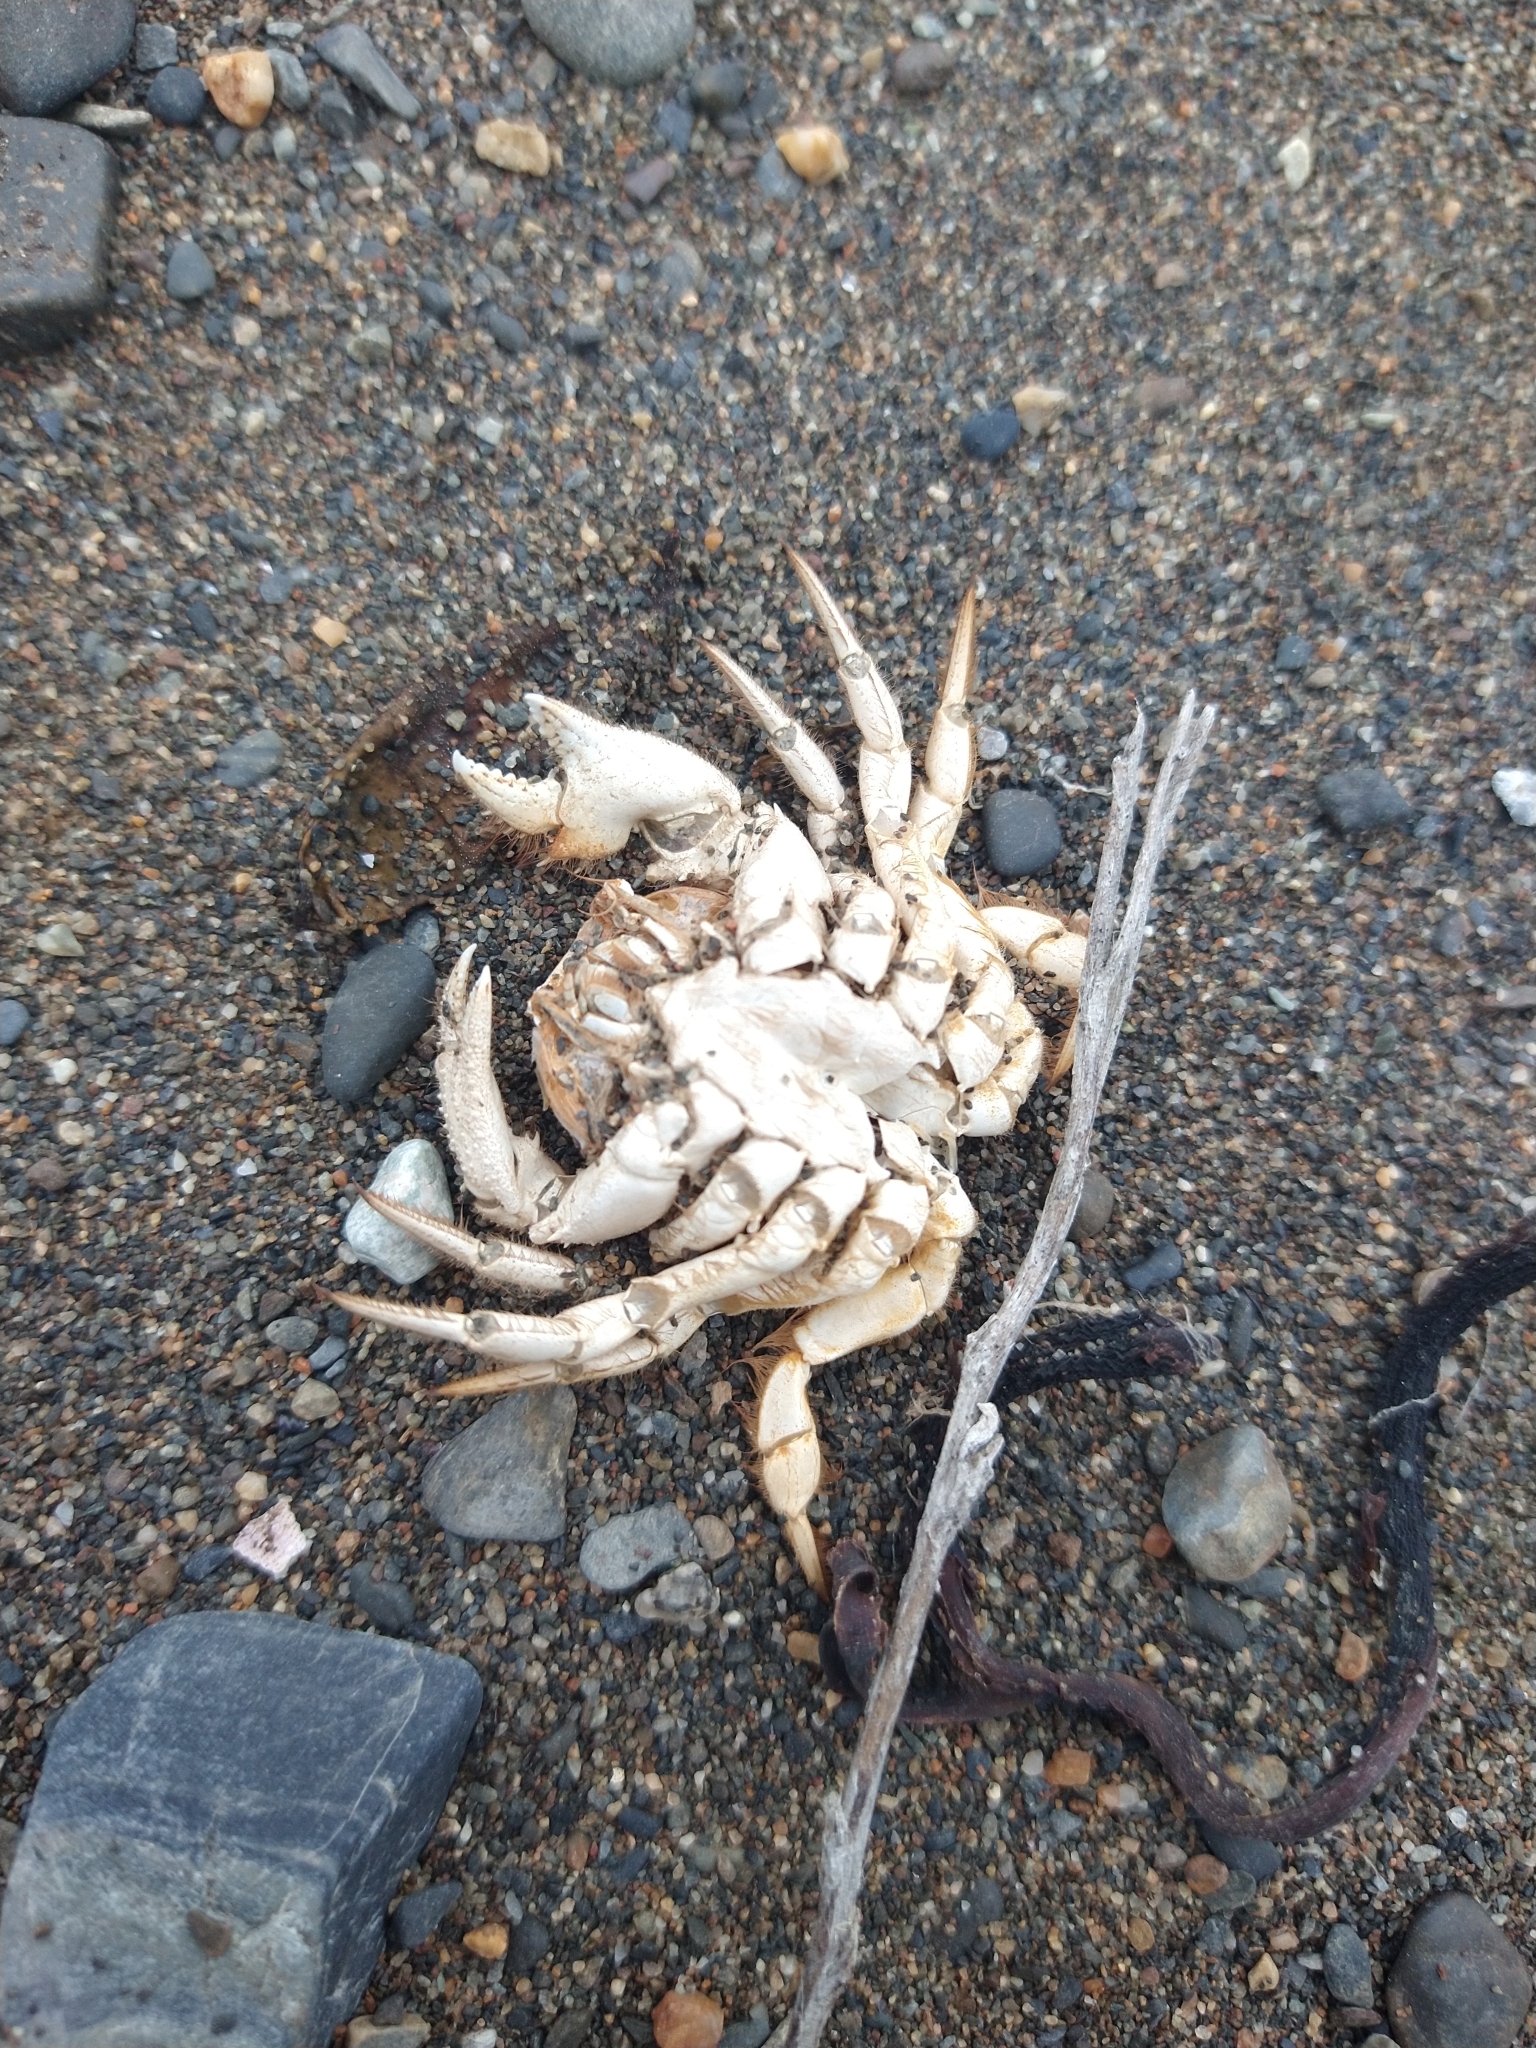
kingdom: Animalia
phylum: Arthropoda
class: Malacostraca
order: Decapoda
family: Trichopeltariidae
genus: Peltarion
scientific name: Peltarion spinulosum
